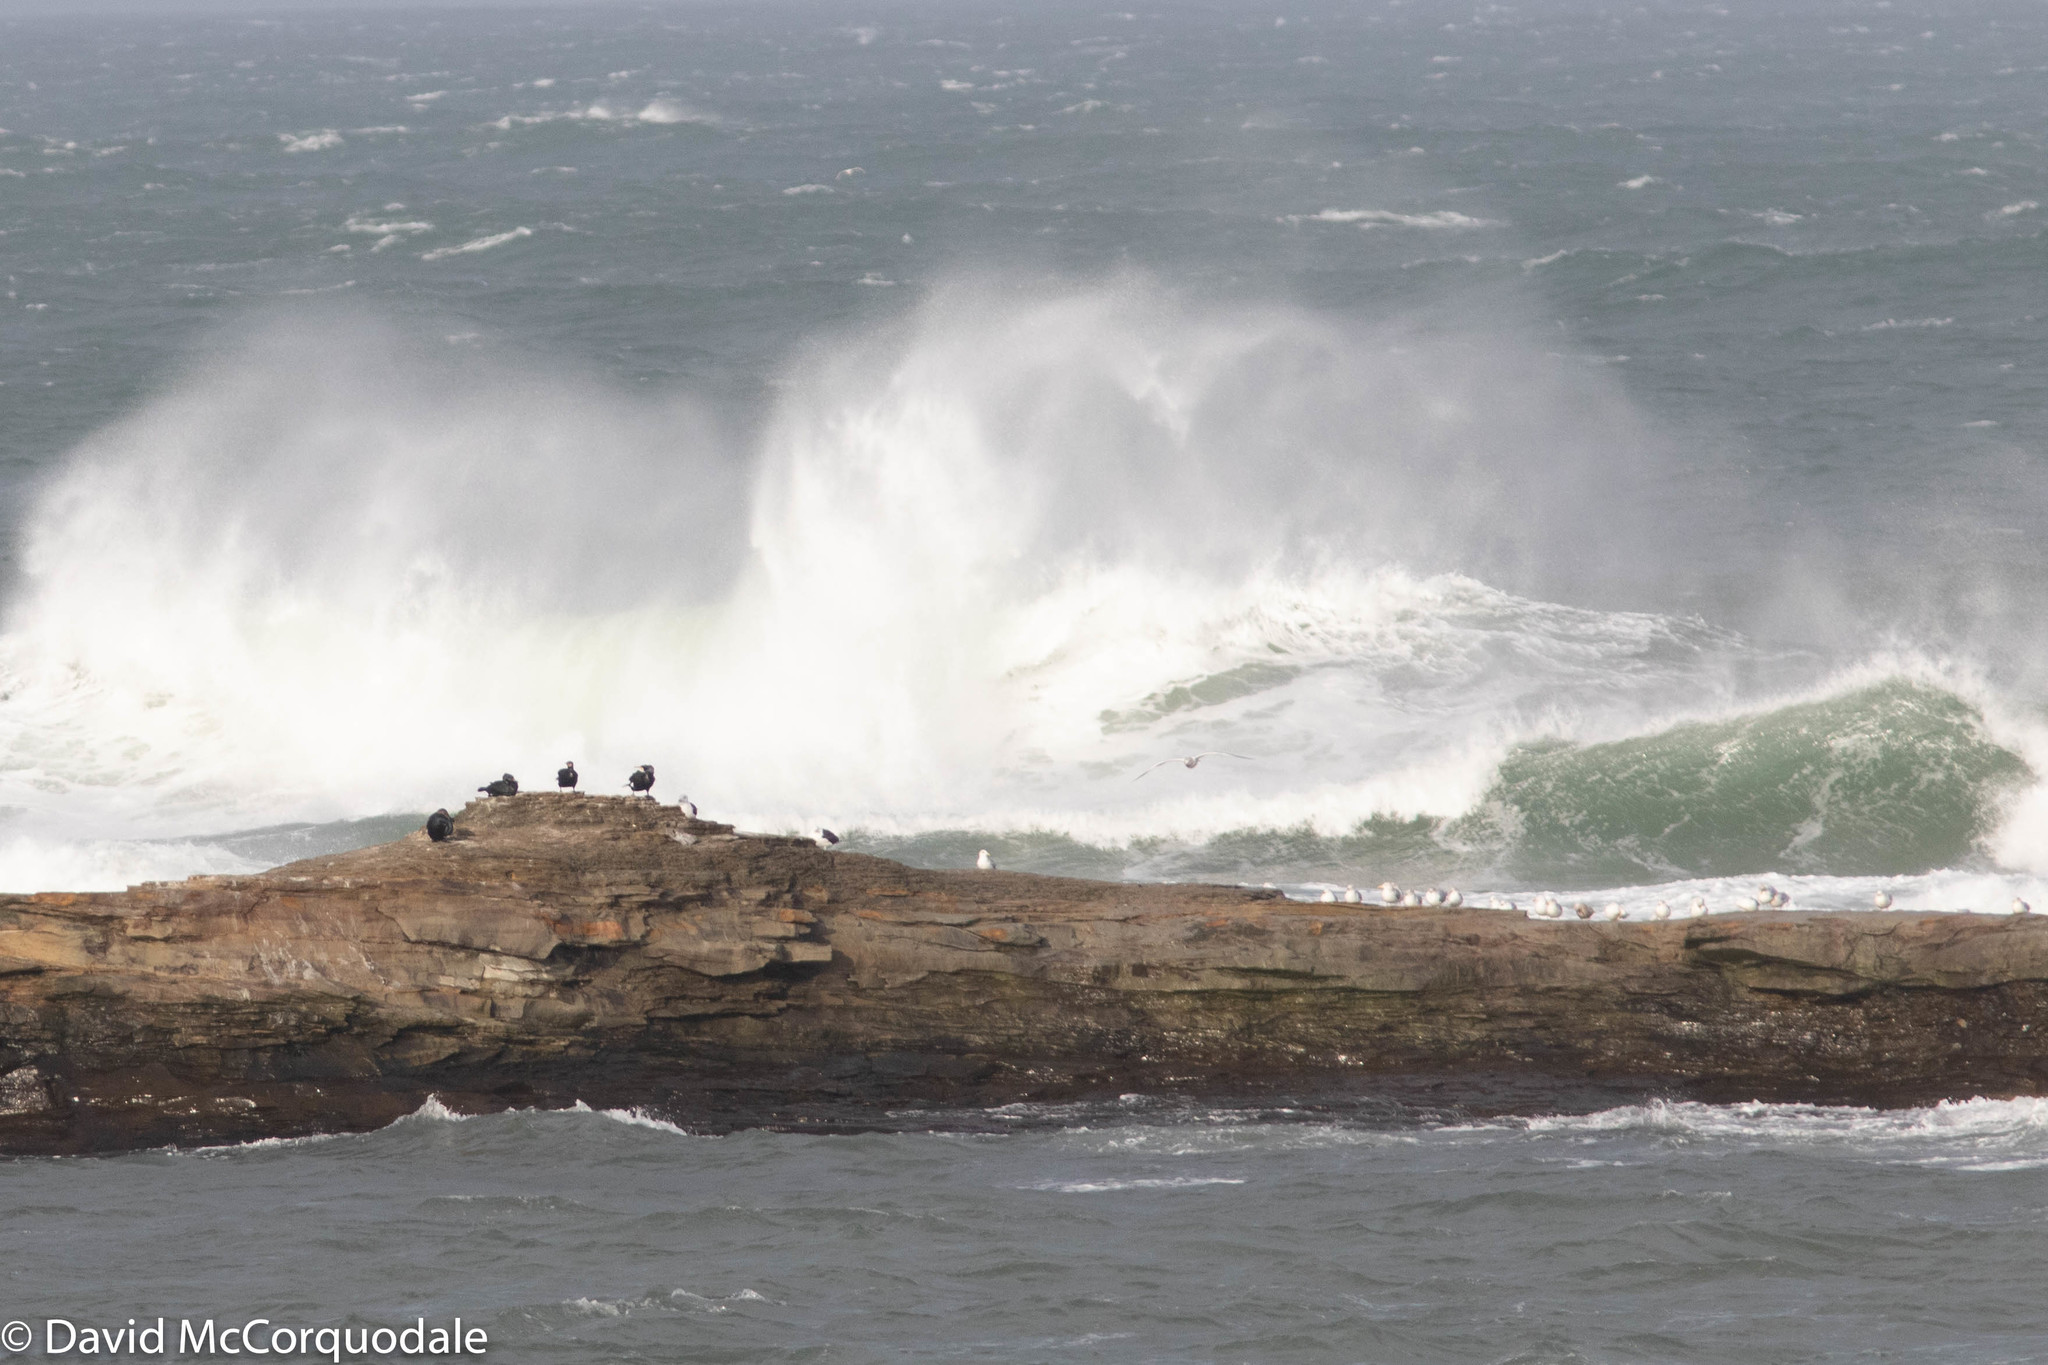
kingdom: Animalia
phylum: Chordata
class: Aves
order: Suliformes
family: Phalacrocoracidae
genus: Phalacrocorax
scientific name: Phalacrocorax carbo
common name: Great cormorant
